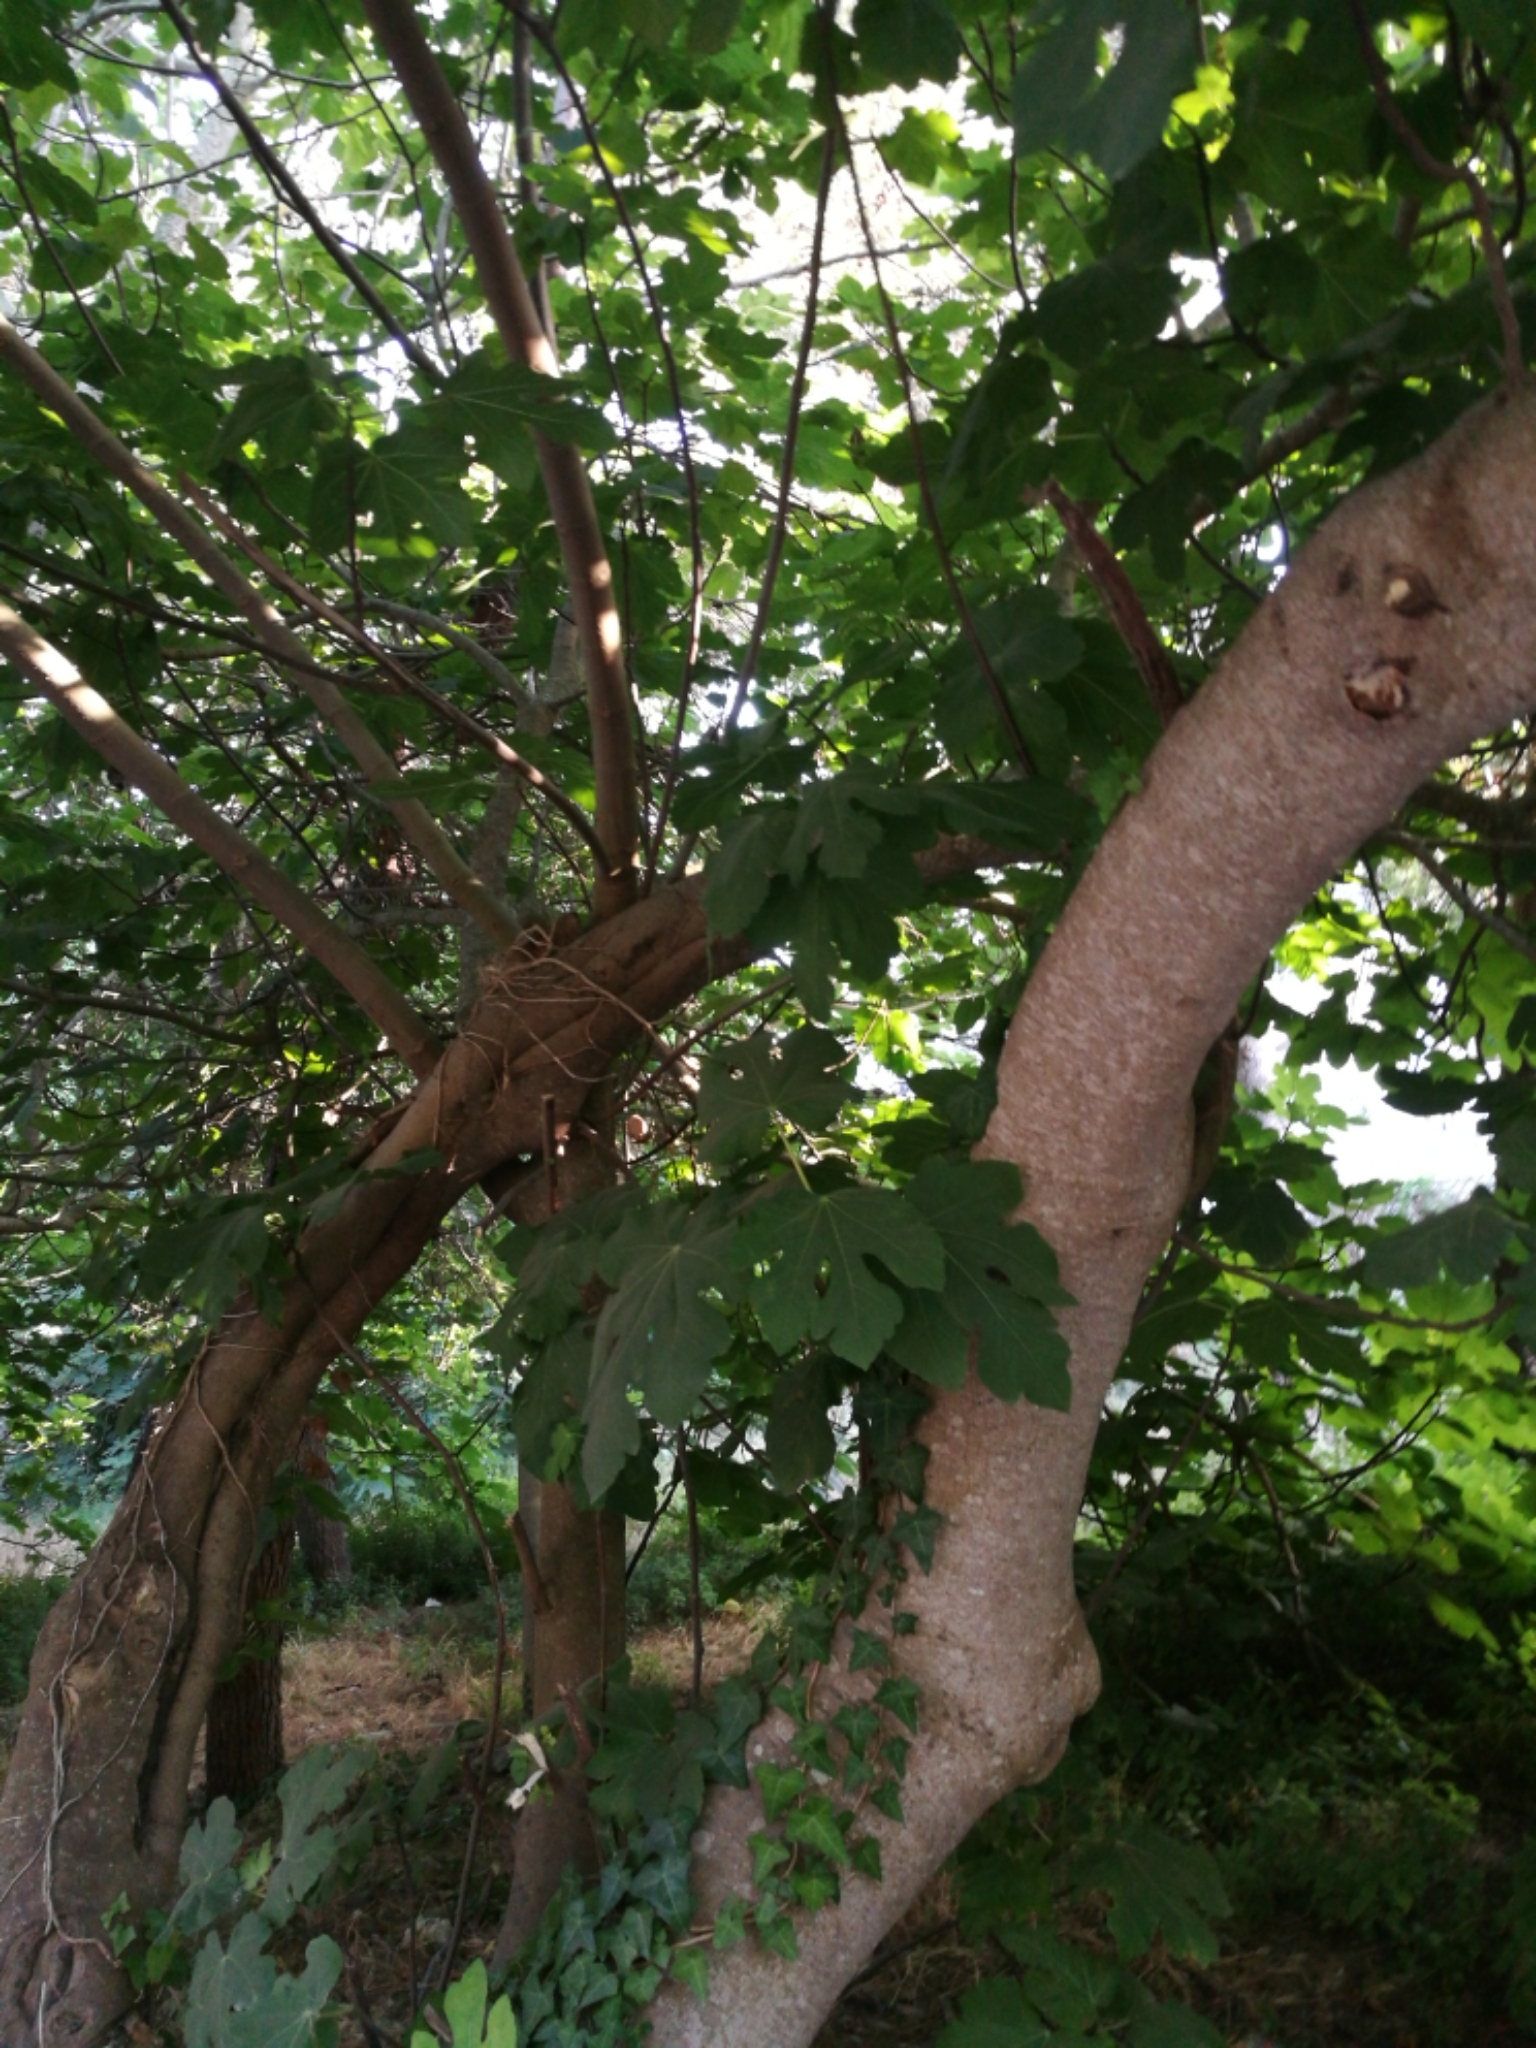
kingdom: Plantae
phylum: Tracheophyta
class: Magnoliopsida
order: Rosales
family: Moraceae
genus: Ficus
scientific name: Ficus carica
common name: Fig
